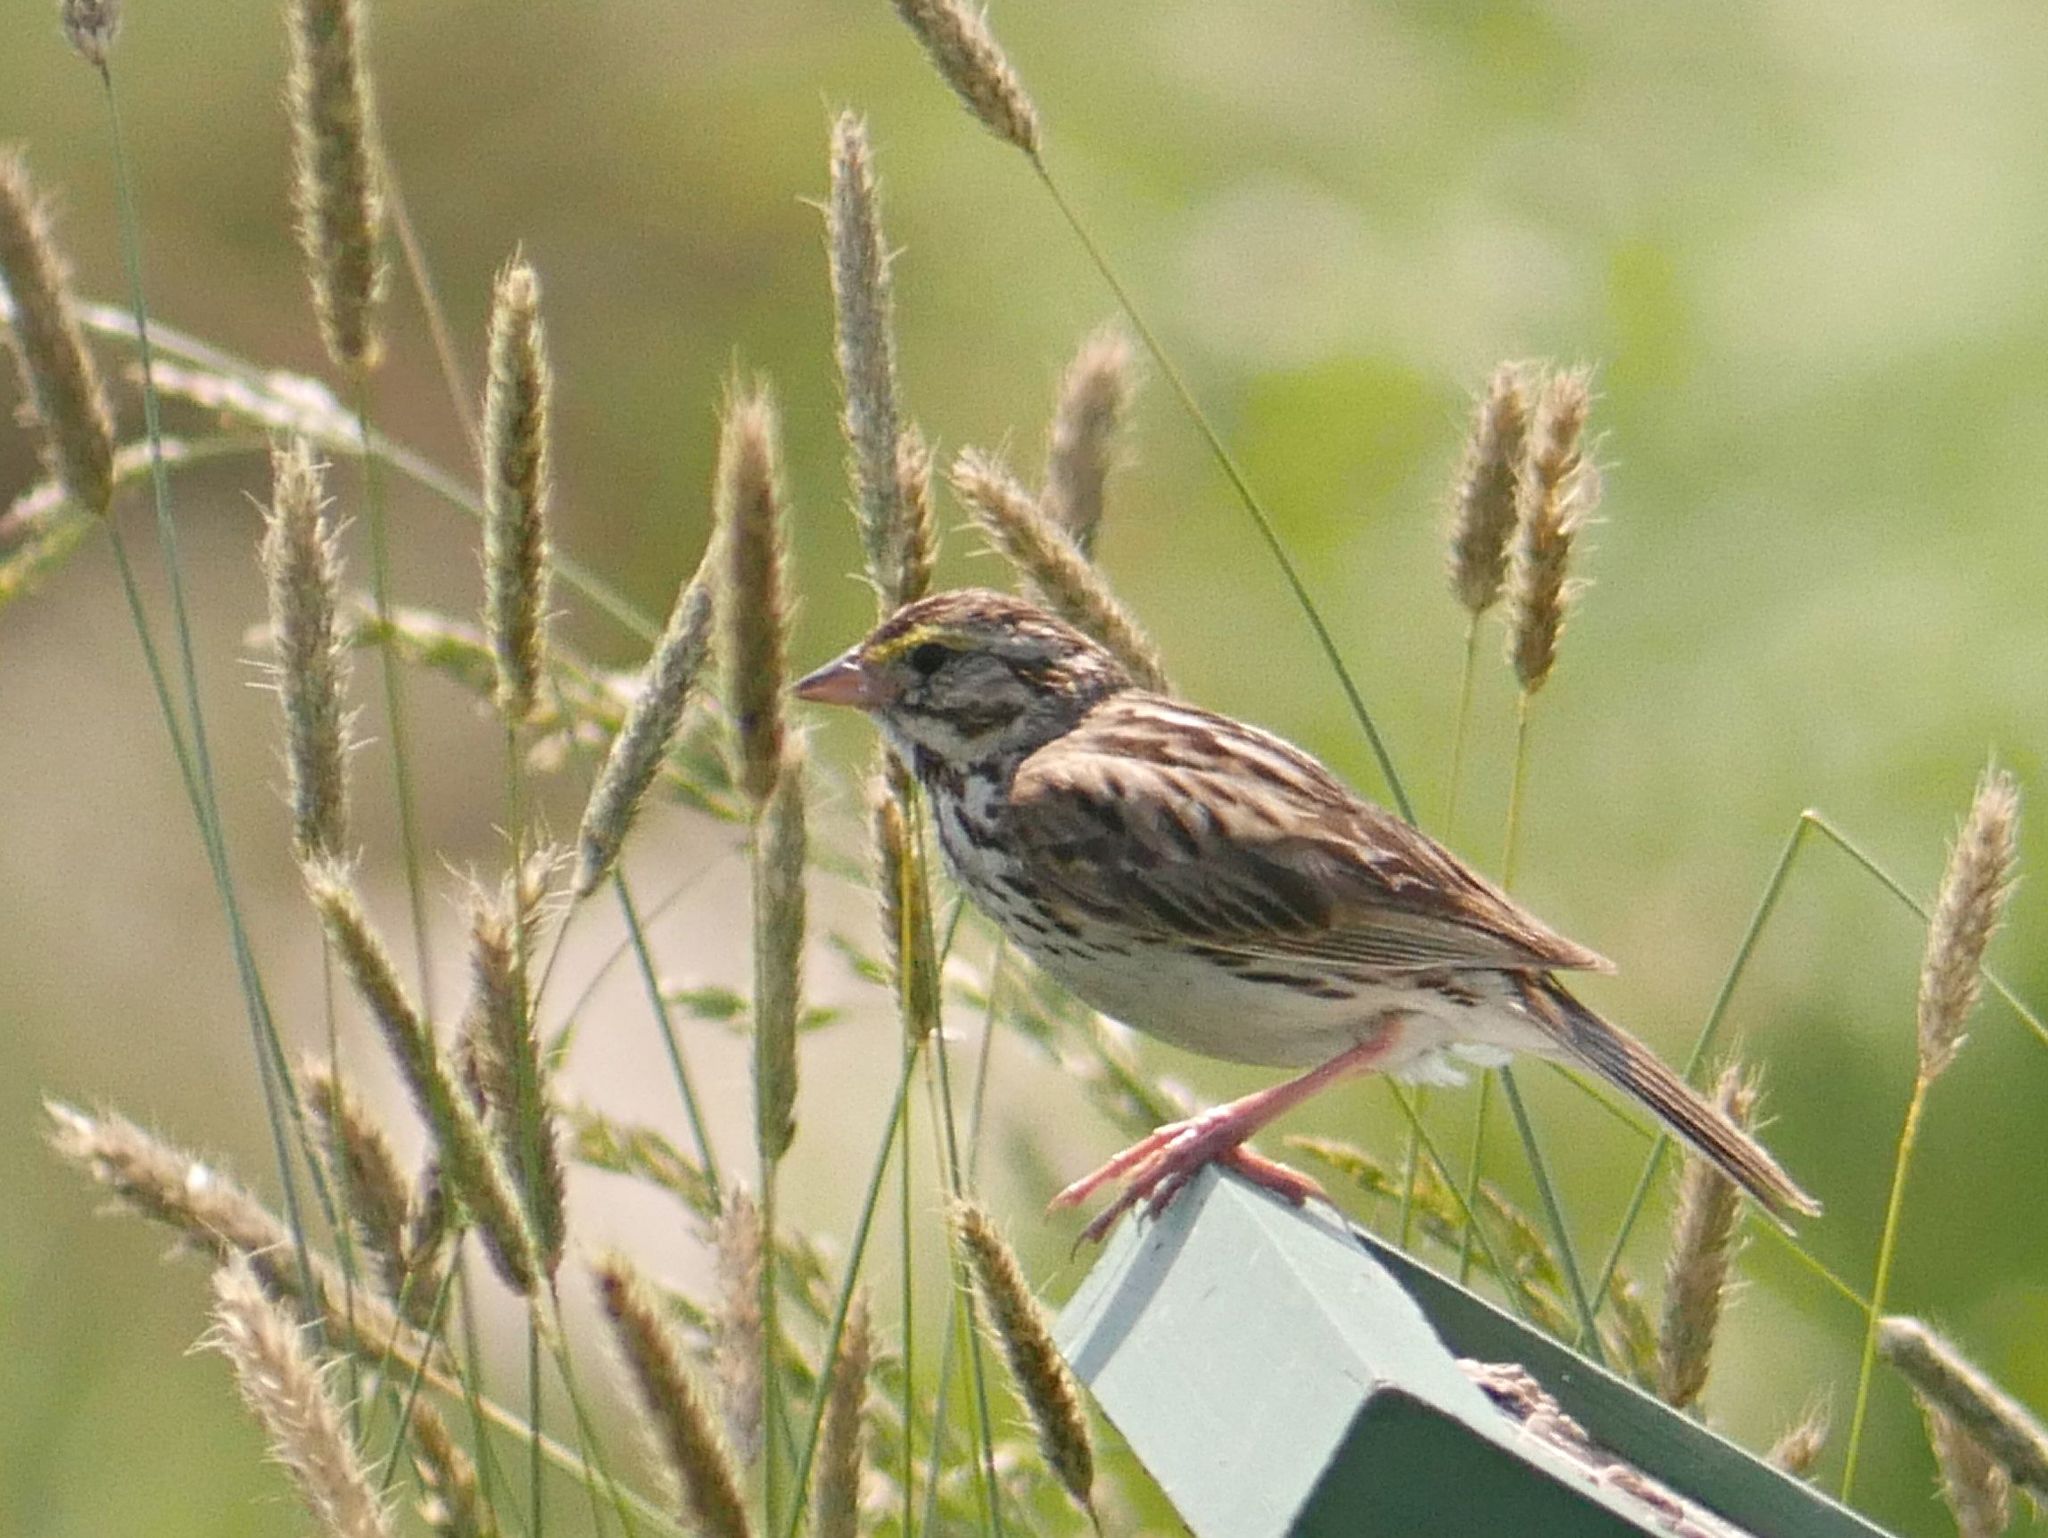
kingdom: Animalia
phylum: Chordata
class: Aves
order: Passeriformes
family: Passerellidae
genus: Passerculus
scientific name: Passerculus sandwichensis
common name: Savannah sparrow
